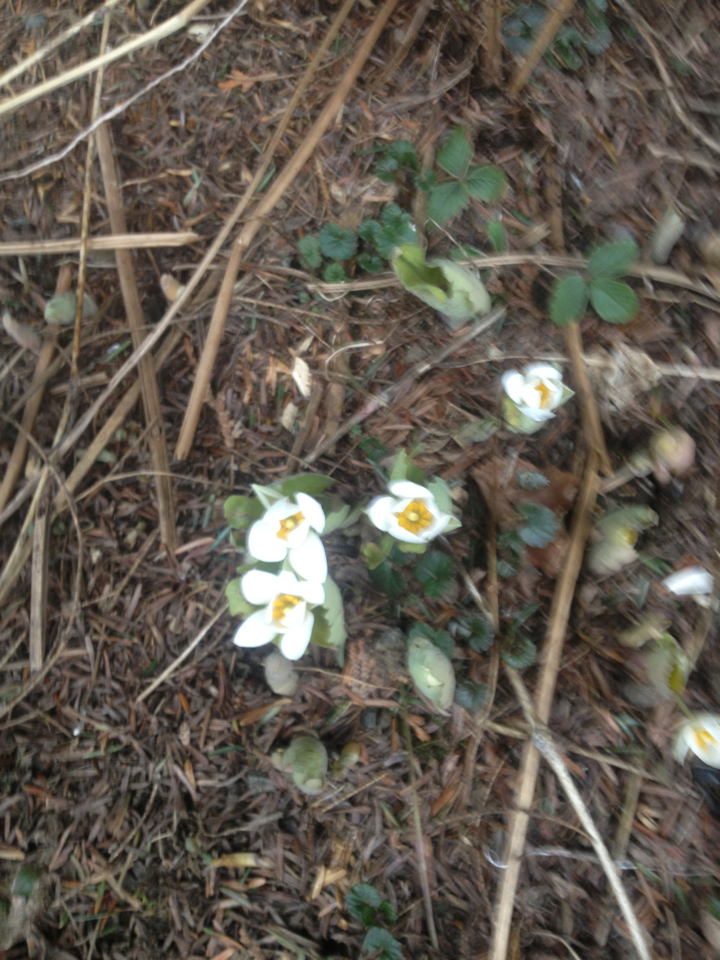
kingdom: Plantae
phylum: Tracheophyta
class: Magnoliopsida
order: Ranunculales
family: Papaveraceae
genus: Sanguinaria
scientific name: Sanguinaria canadensis
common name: Bloodroot
